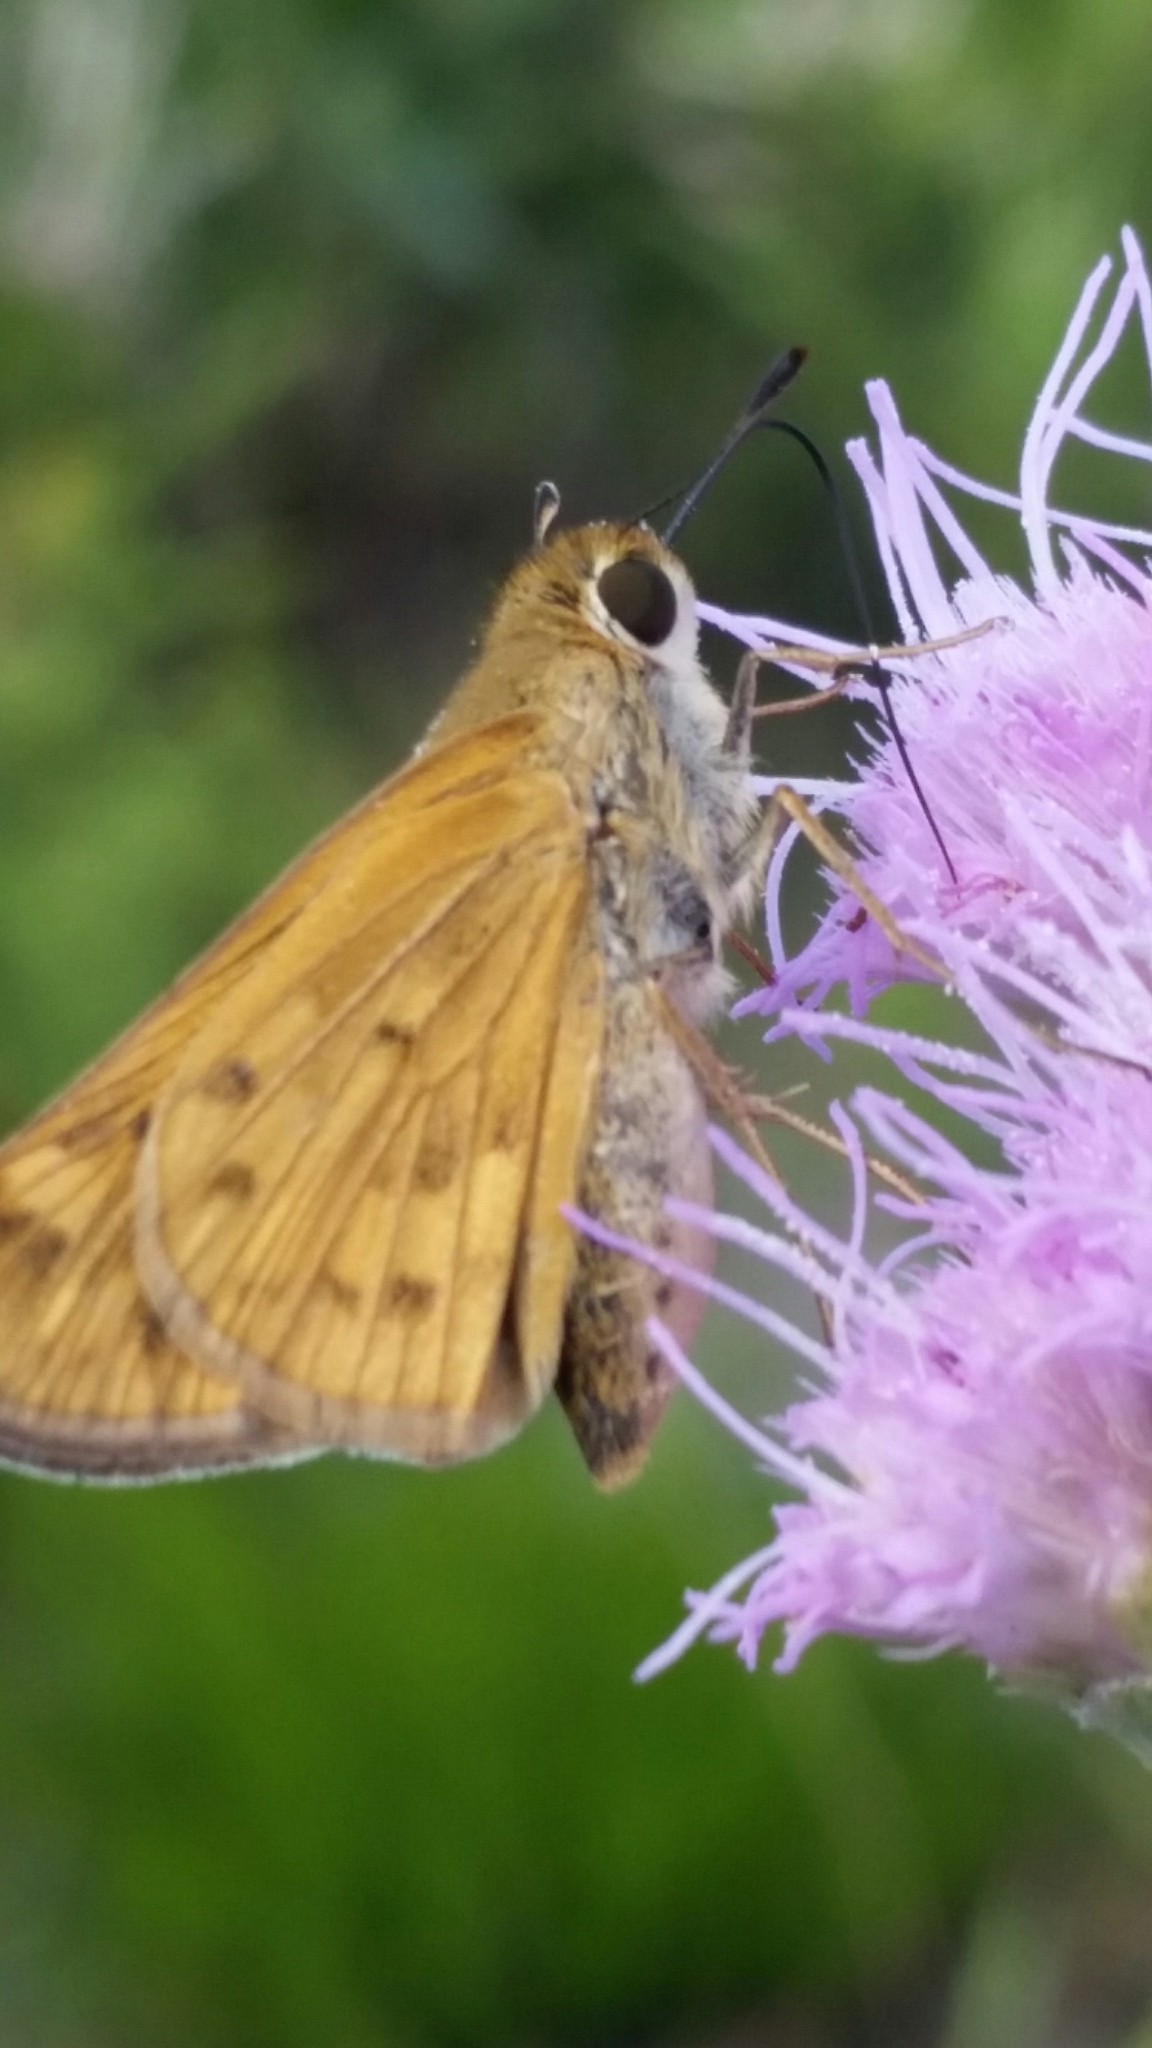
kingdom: Animalia
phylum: Arthropoda
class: Insecta
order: Lepidoptera
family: Hesperiidae
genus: Hylephila
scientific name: Hylephila phyleus
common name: Fiery skipper
